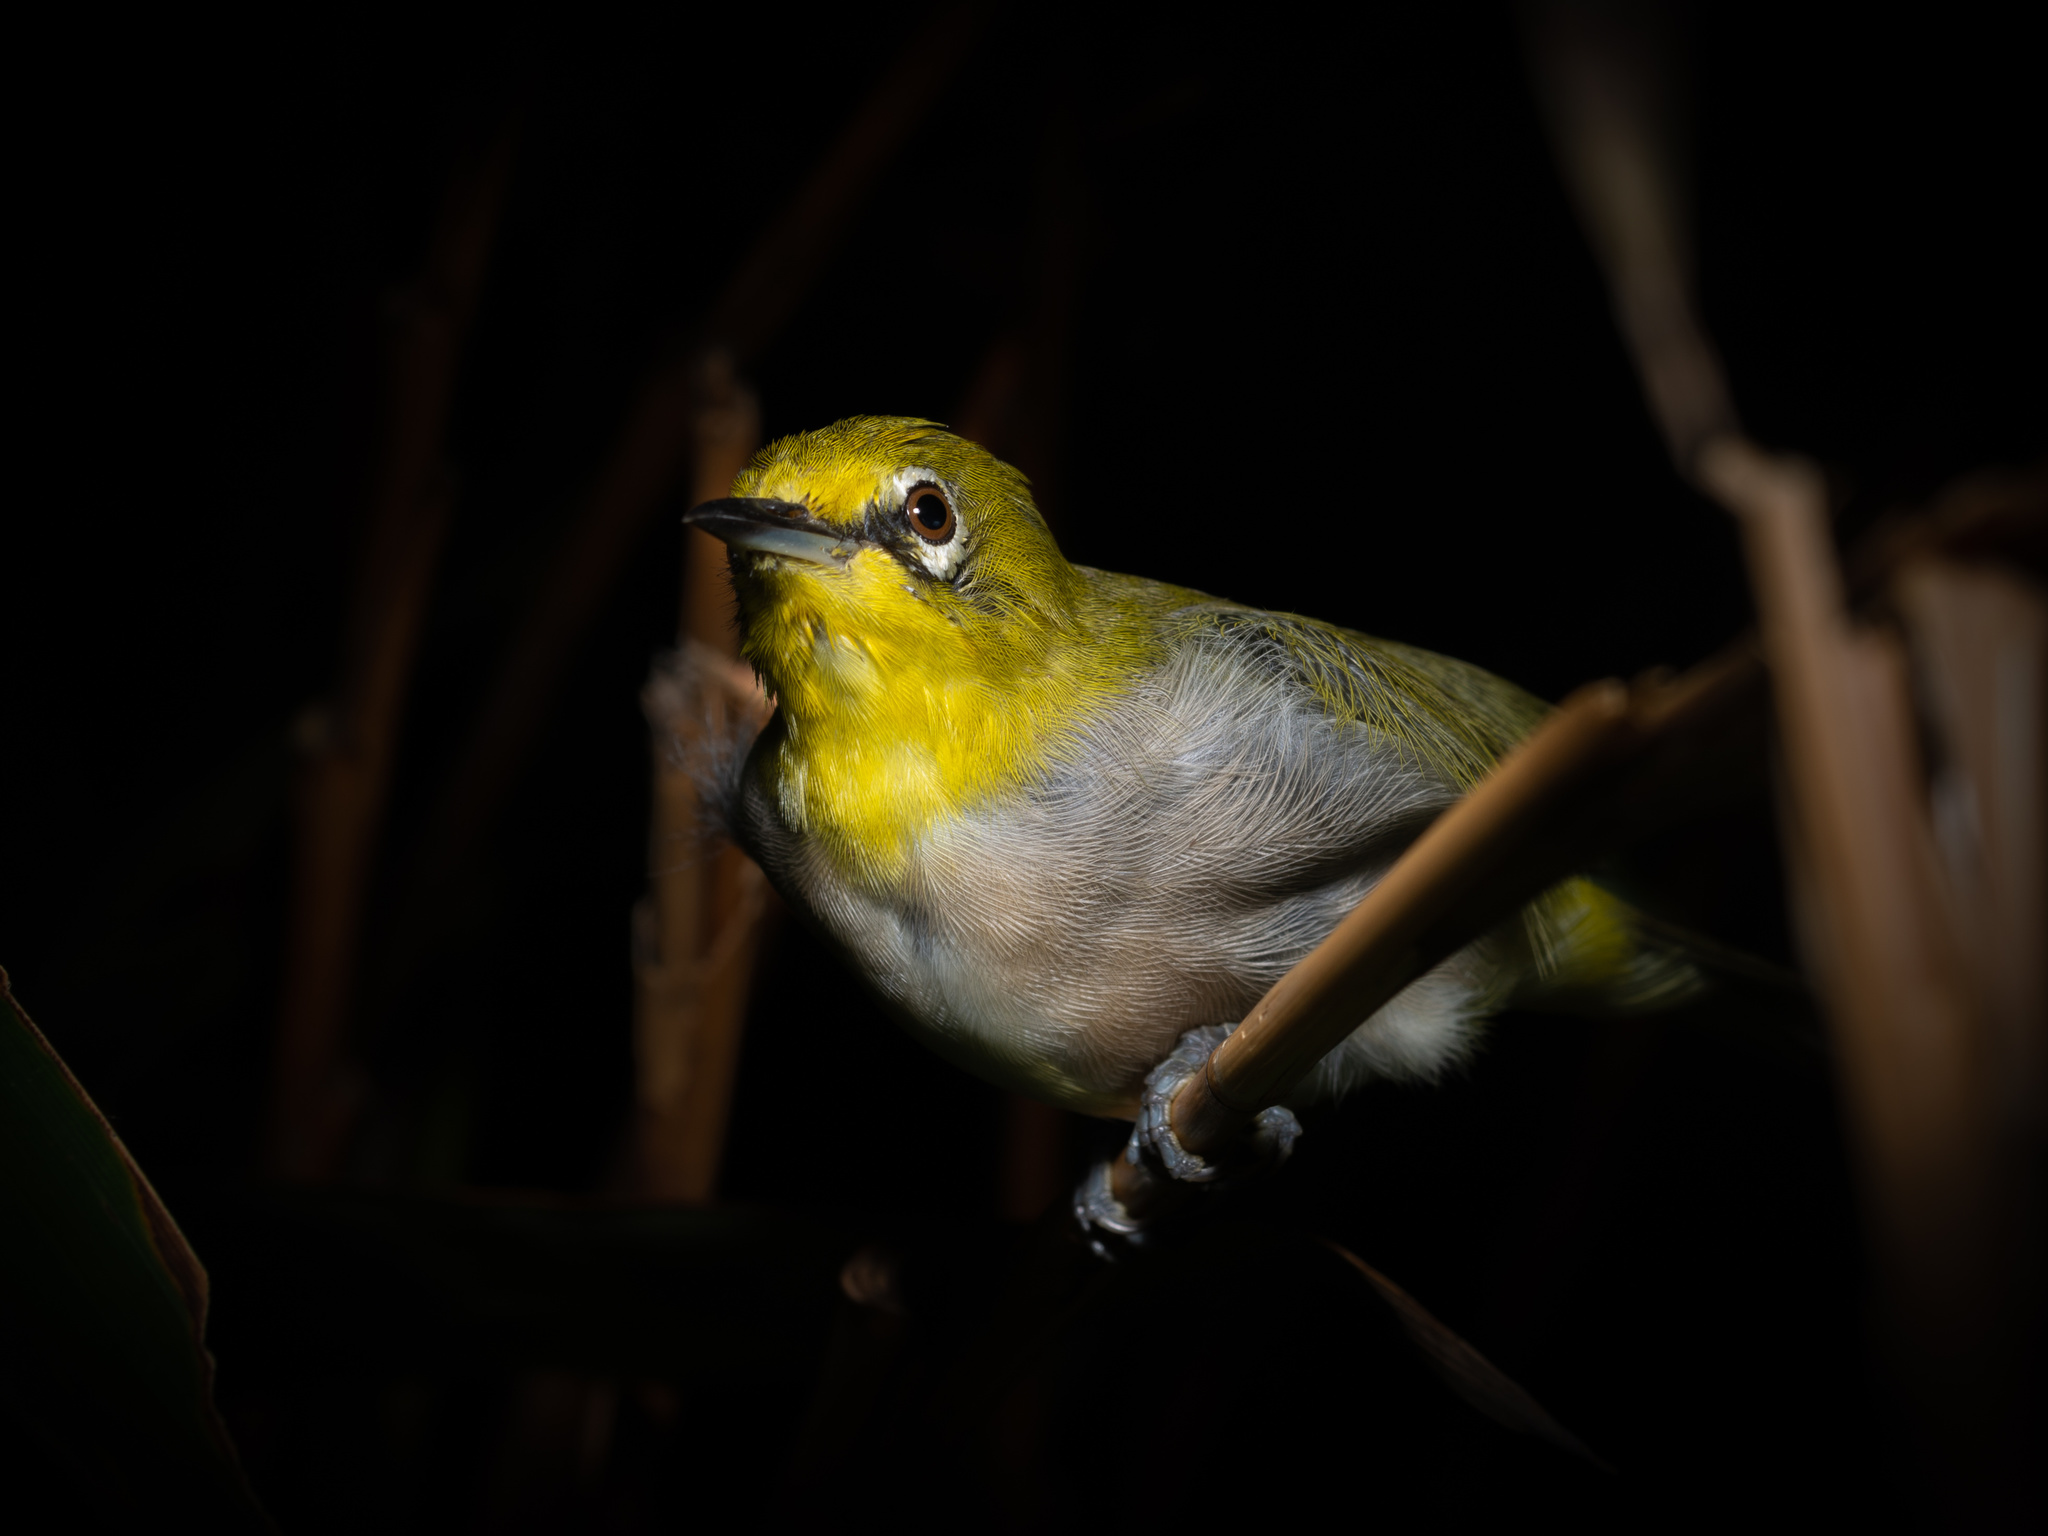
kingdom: Animalia
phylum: Chordata
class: Aves
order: Passeriformes
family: Zosteropidae
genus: Zosterops
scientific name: Zosterops simplex
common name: Swinhoe's white-eye
